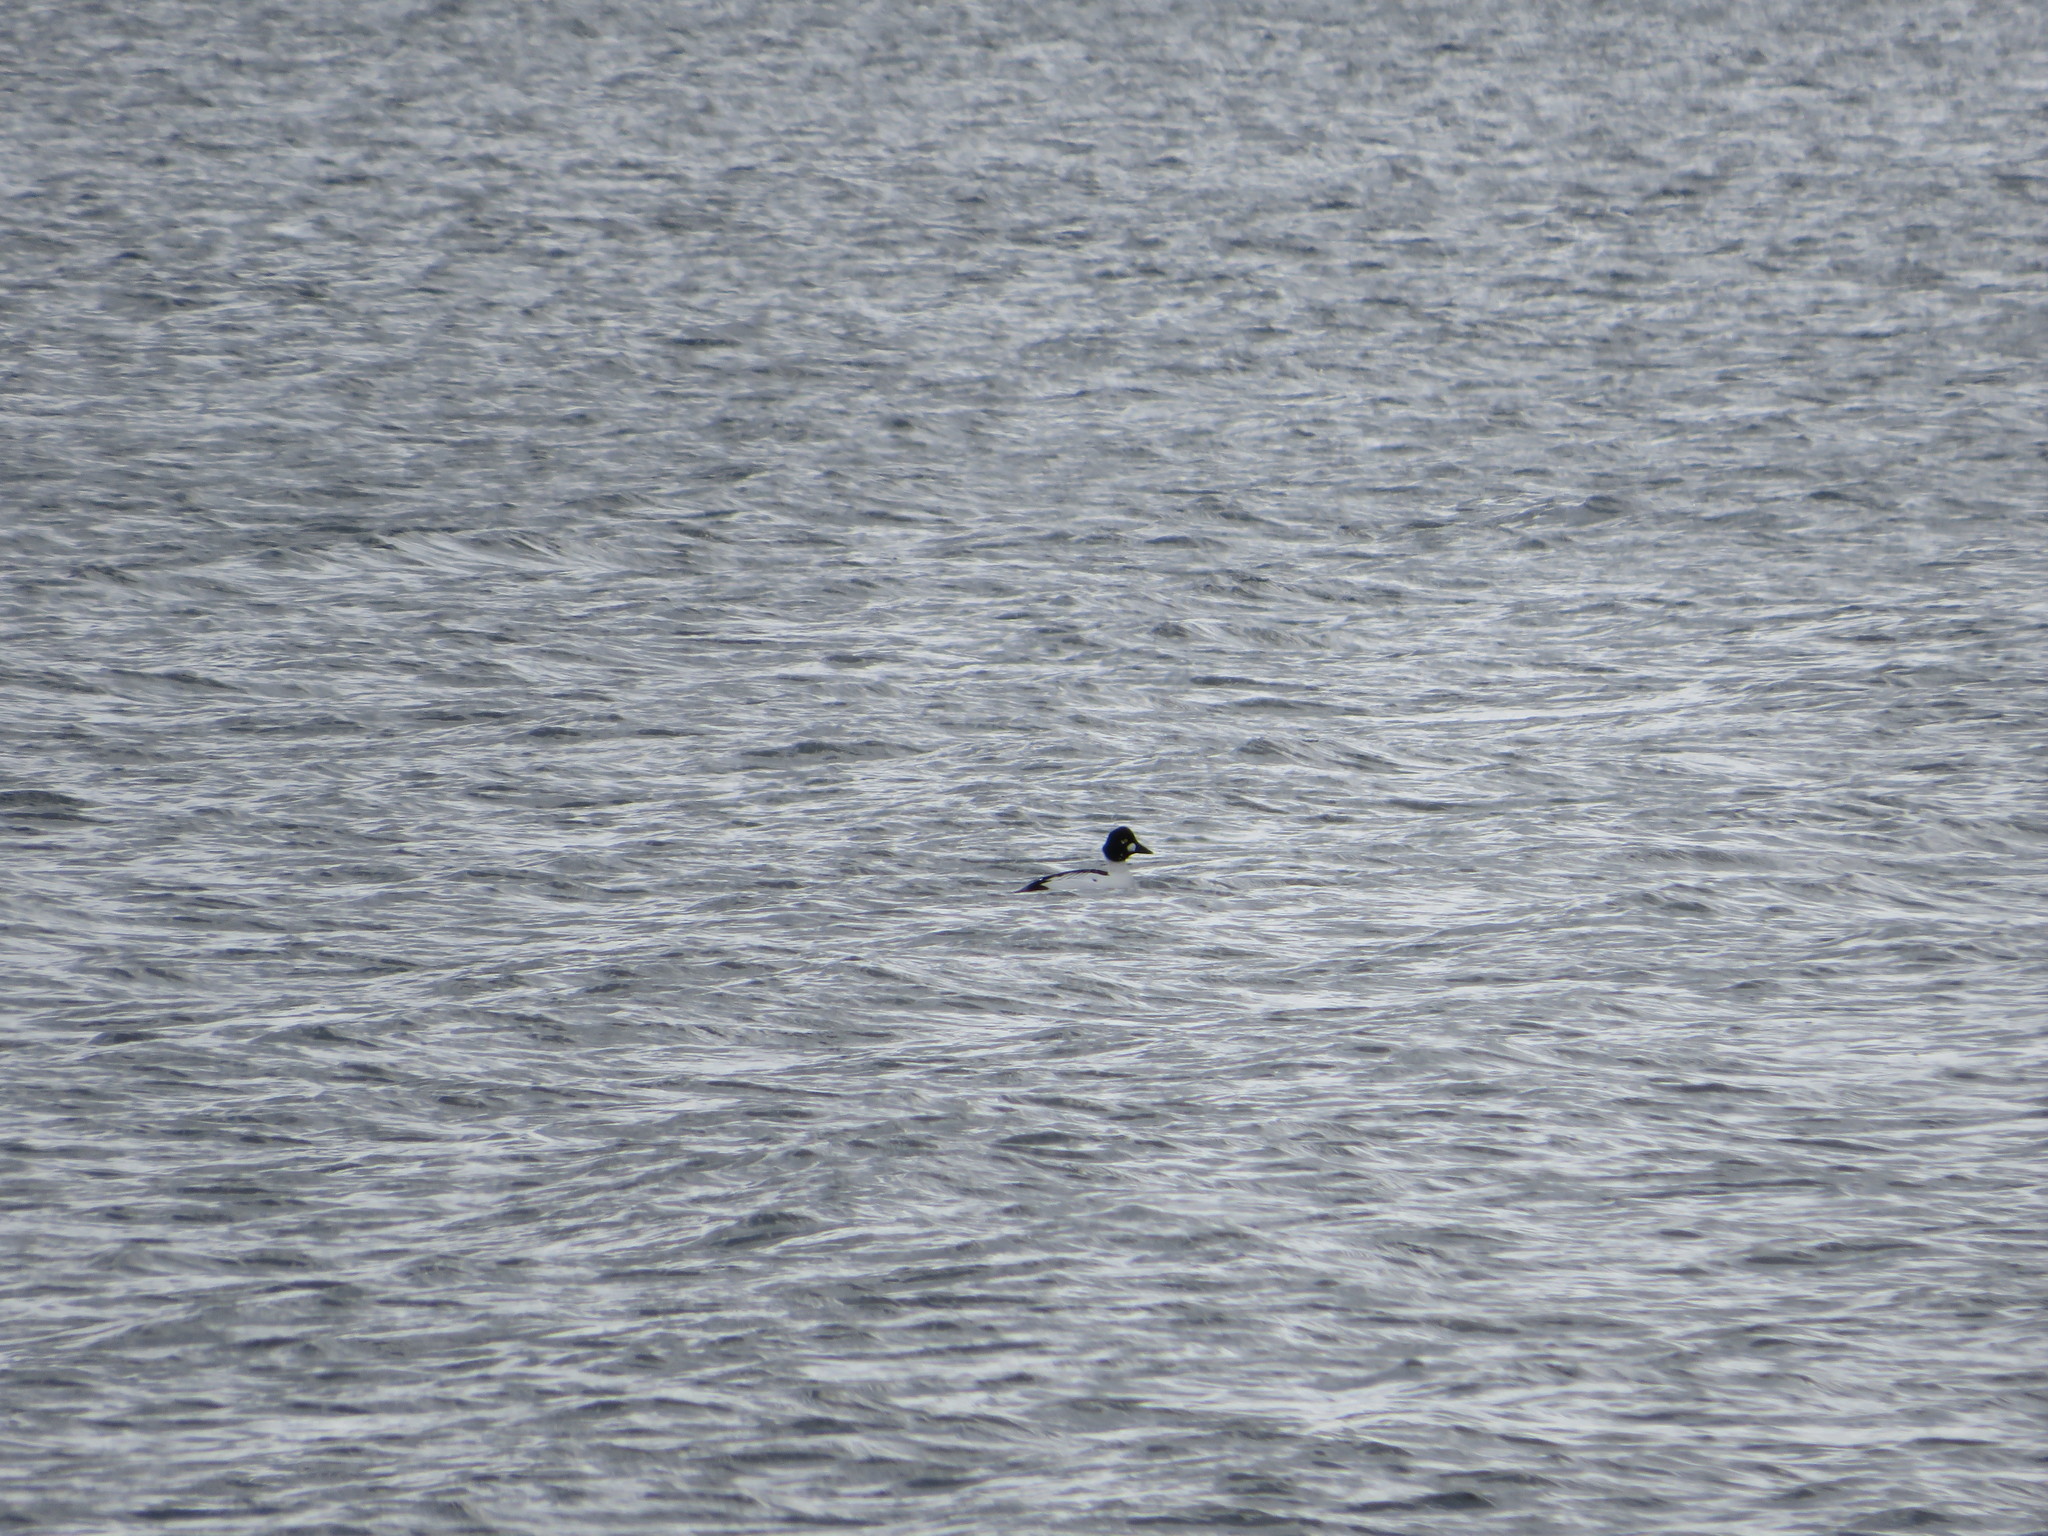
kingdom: Animalia
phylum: Chordata
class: Aves
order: Anseriformes
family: Anatidae
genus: Bucephala
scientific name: Bucephala clangula
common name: Common goldeneye
